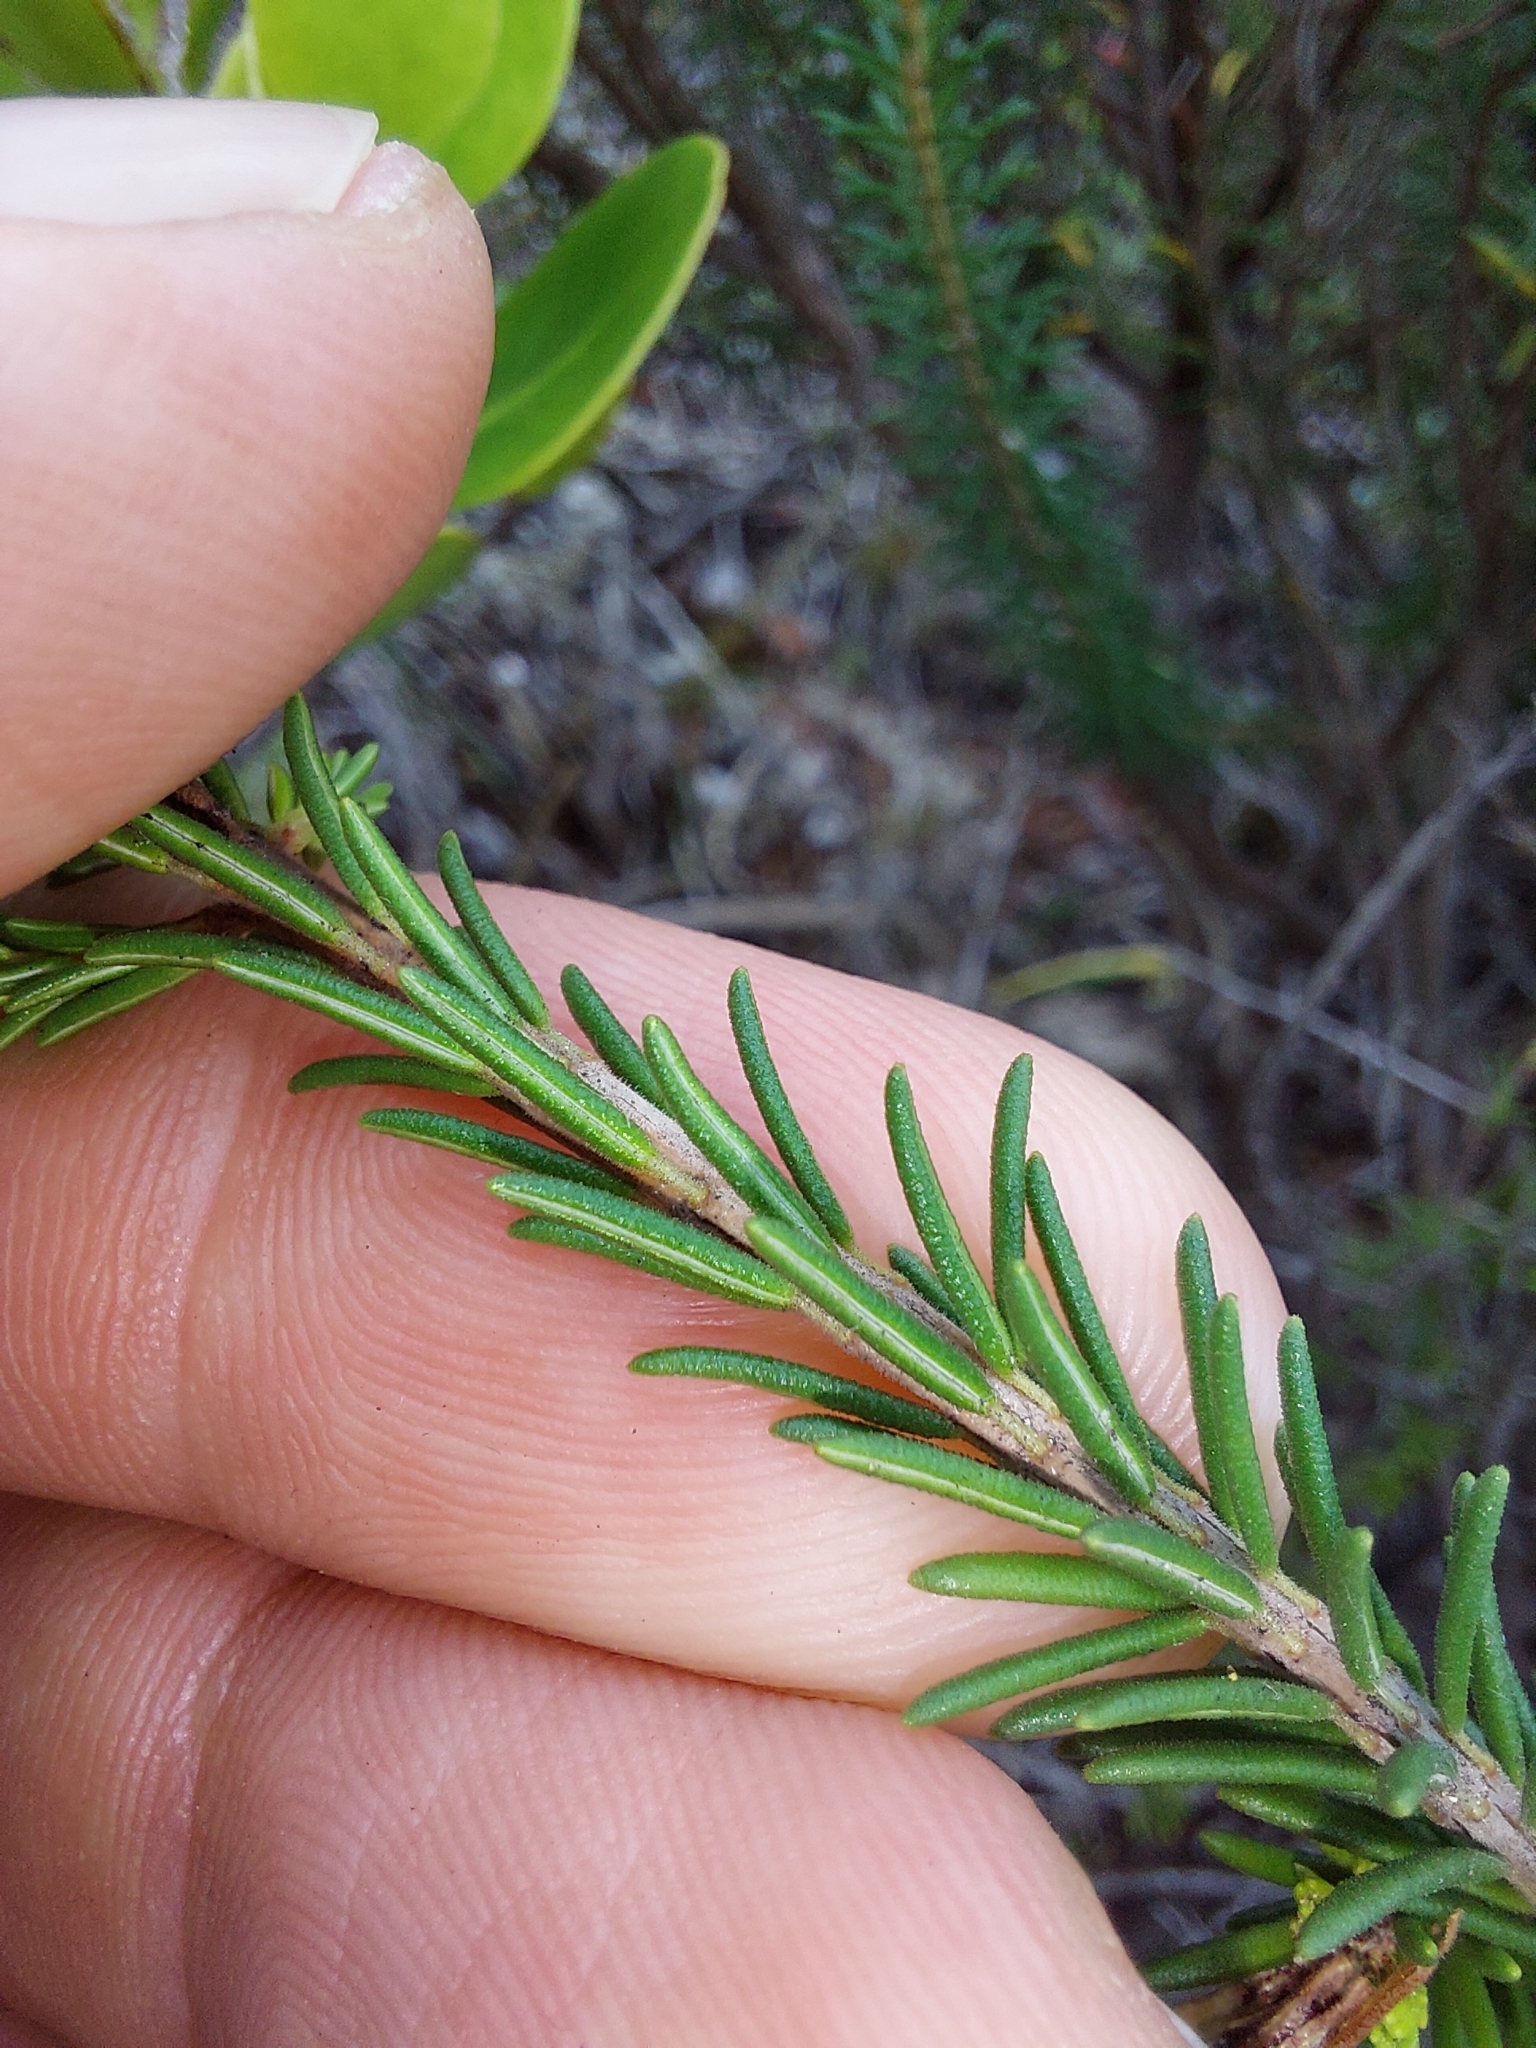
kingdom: Plantae
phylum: Tracheophyta
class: Magnoliopsida
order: Ericales
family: Ericaceae
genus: Erica
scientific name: Erica chloroloma
